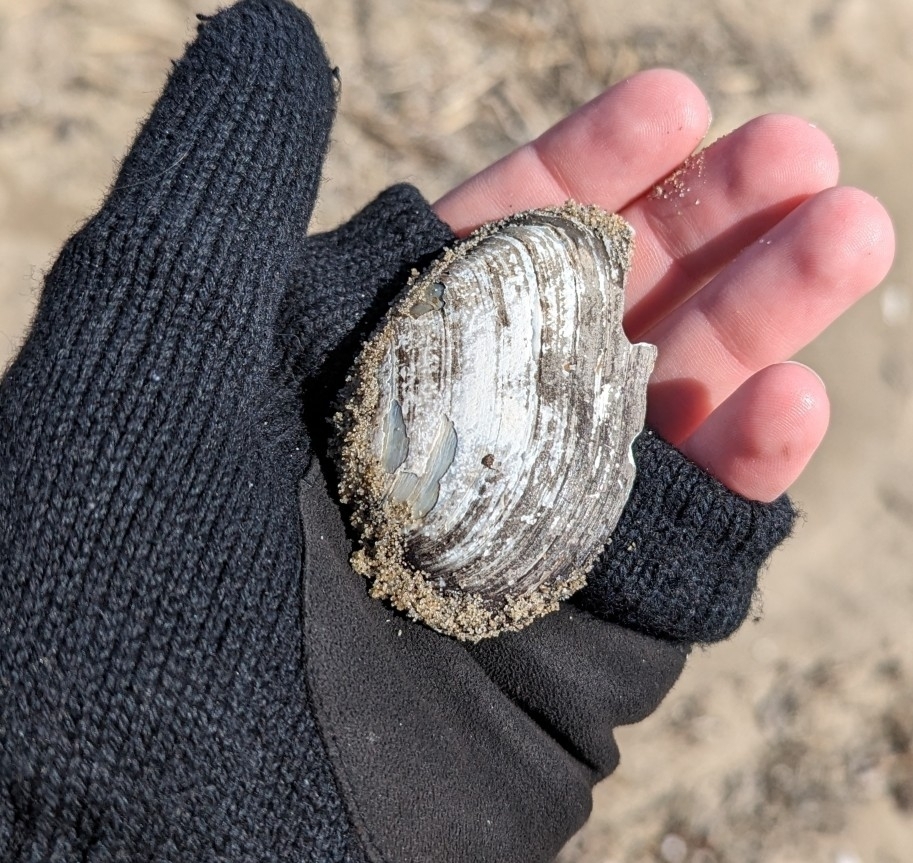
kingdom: Animalia
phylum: Mollusca
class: Bivalvia
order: Unionida
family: Unionidae
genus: Ptychobranchus
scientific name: Ptychobranchus fasciolaris
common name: Kidneyshell
